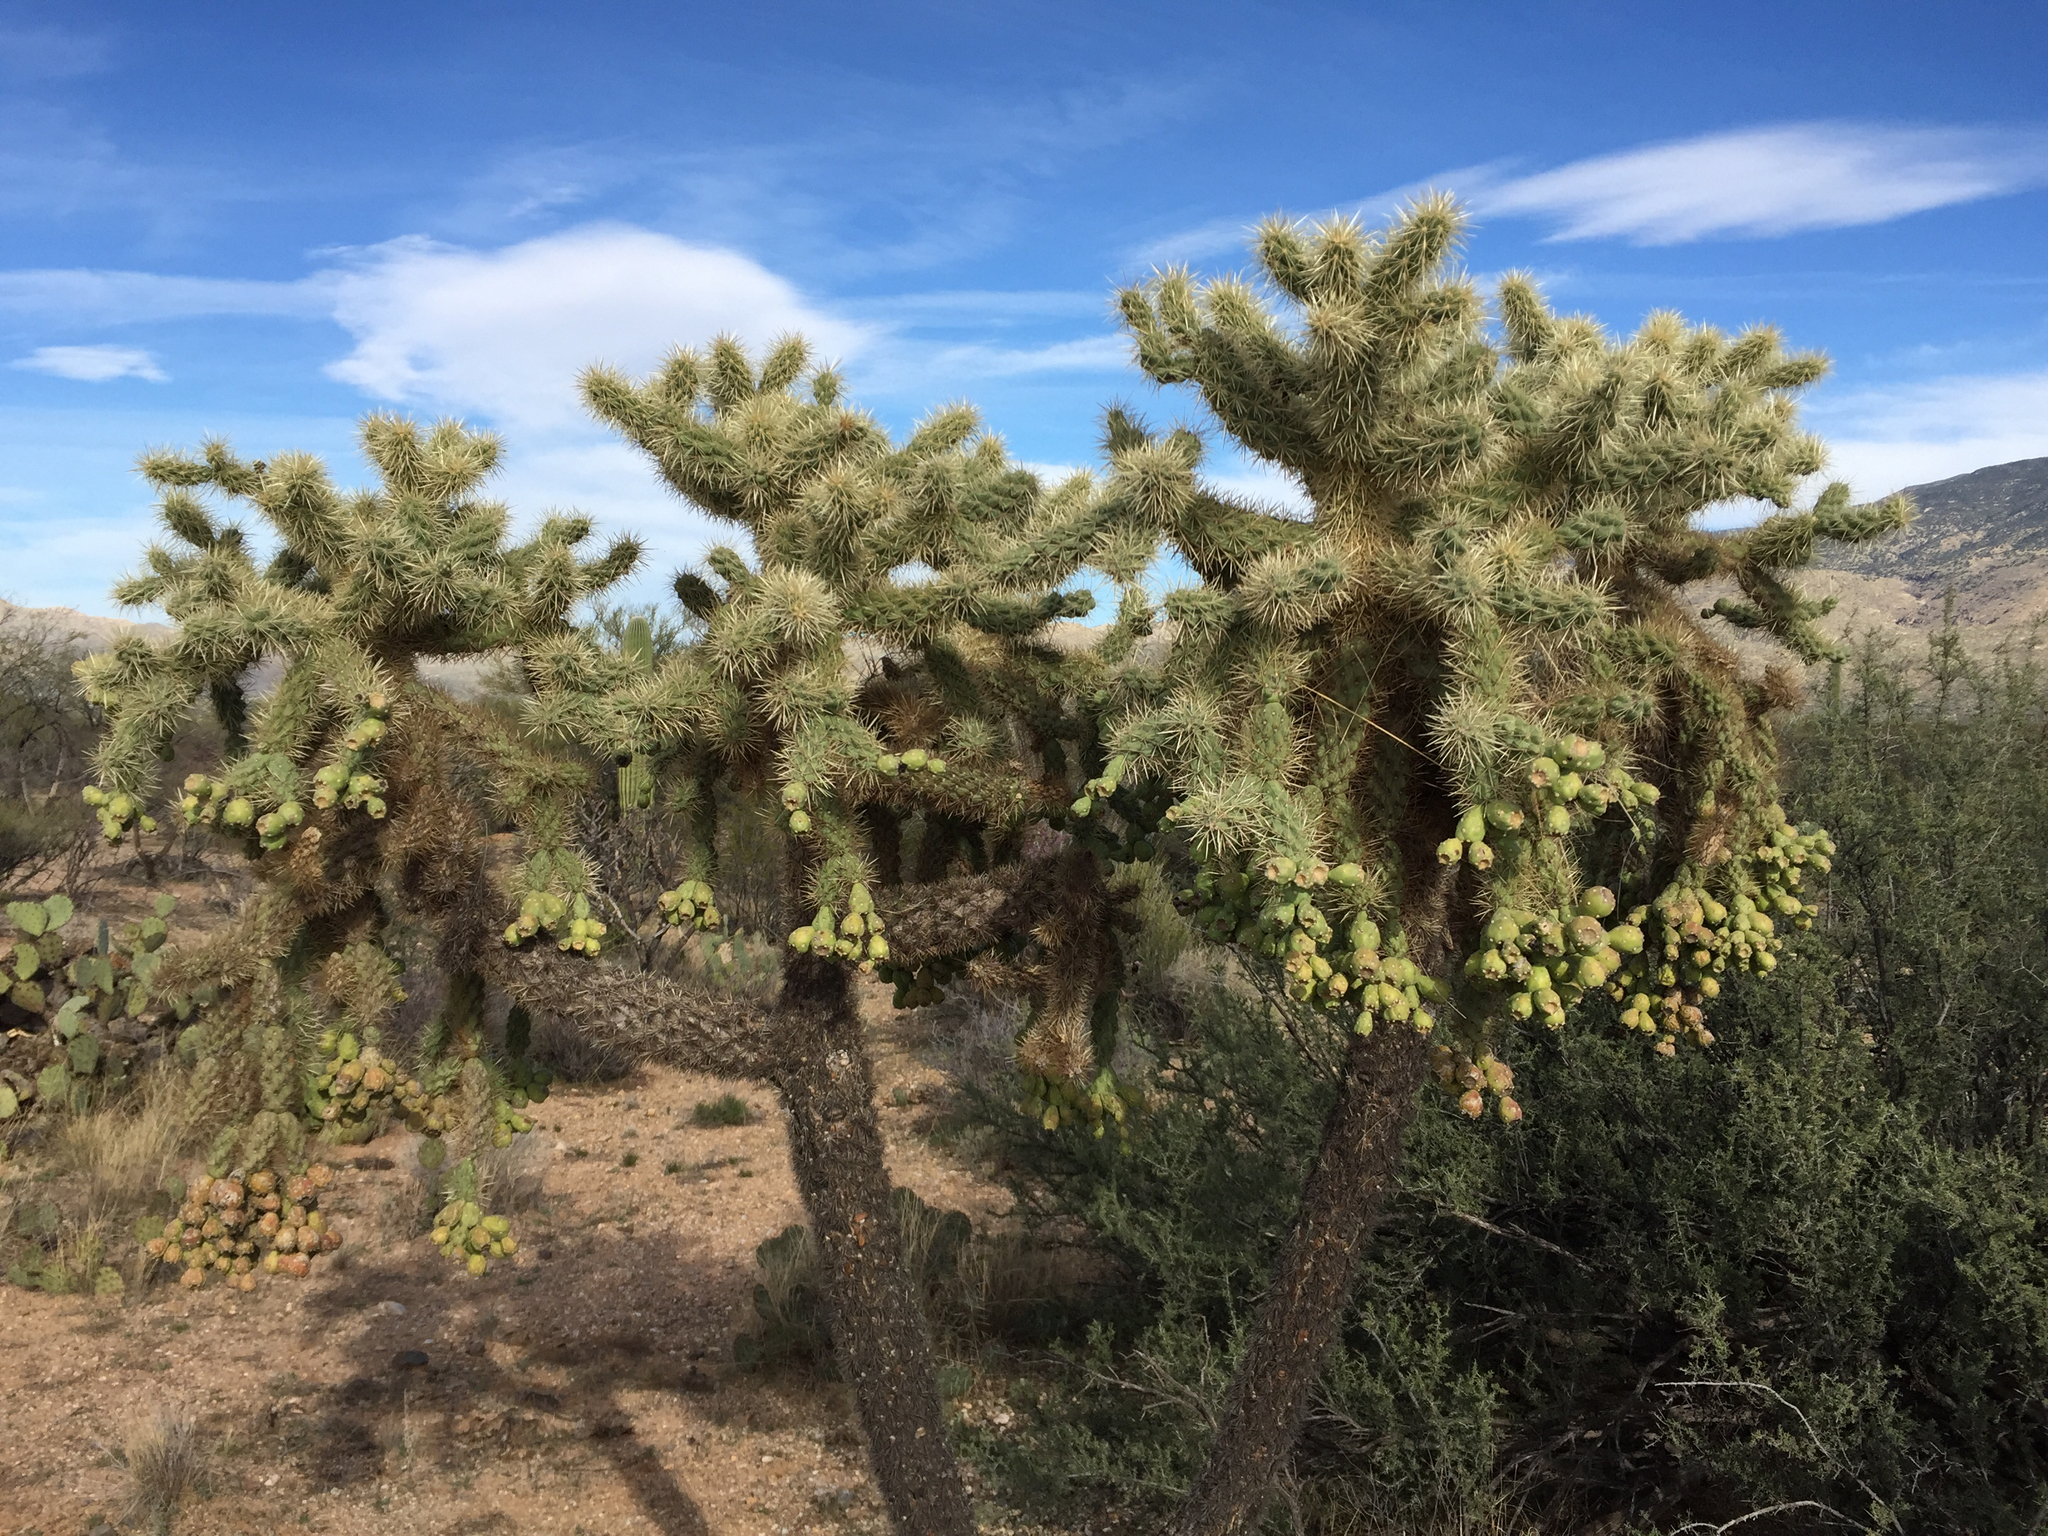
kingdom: Plantae
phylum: Tracheophyta
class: Magnoliopsida
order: Caryophyllales
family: Cactaceae
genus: Cylindropuntia
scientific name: Cylindropuntia fulgida
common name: Jumping cholla
